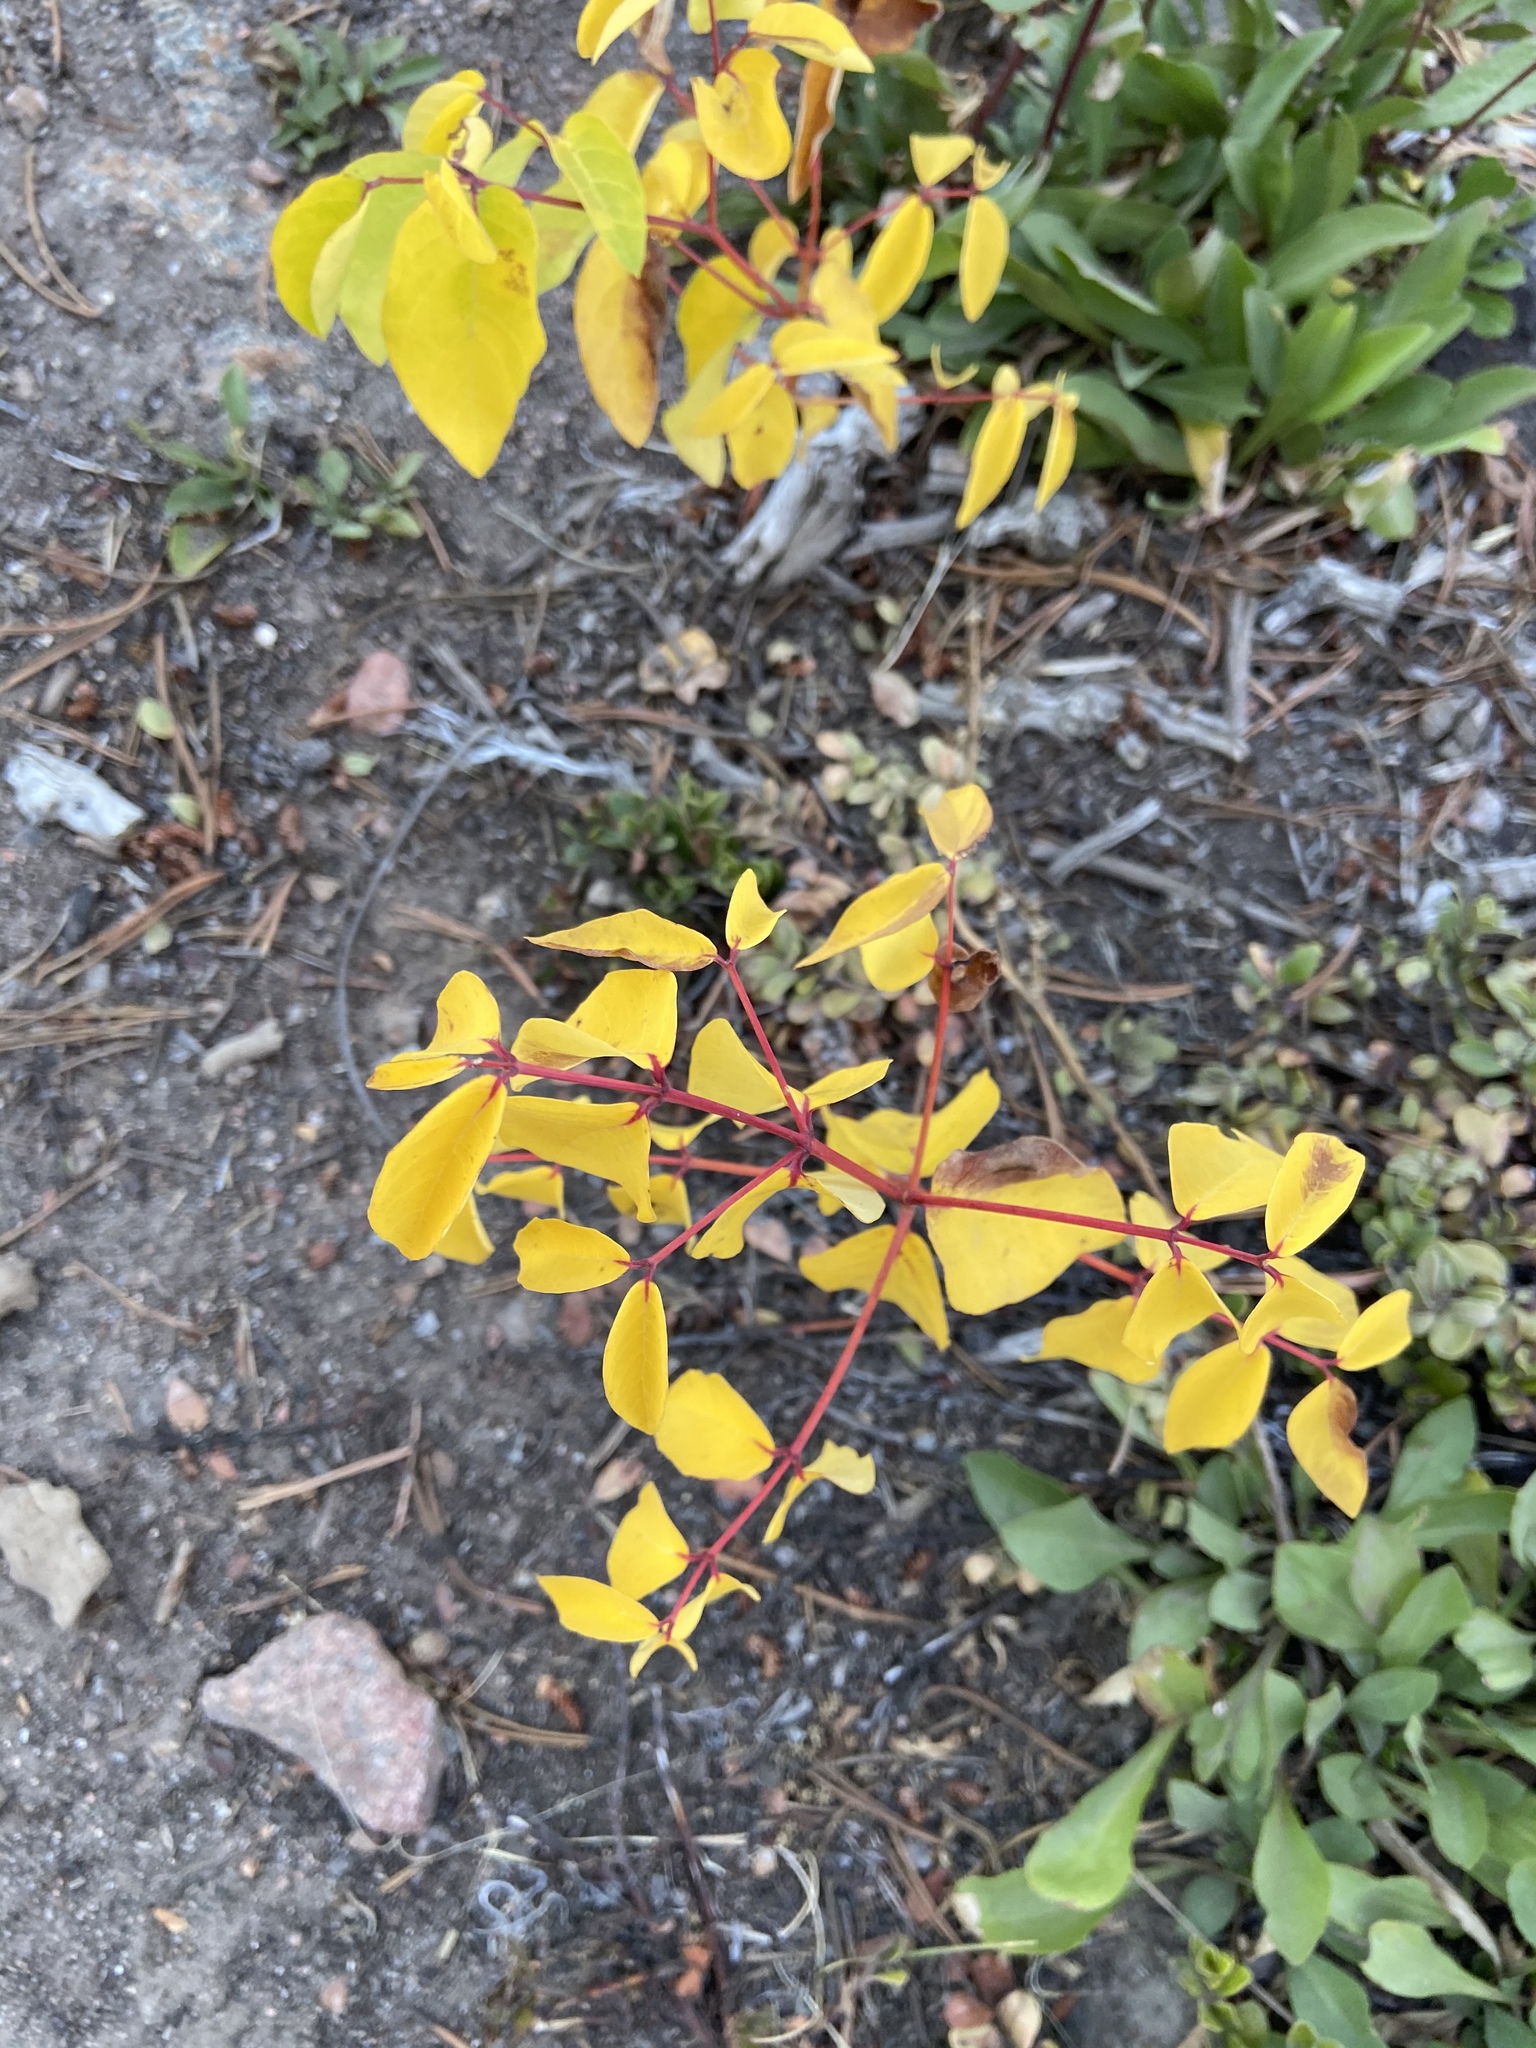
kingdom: Plantae
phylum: Tracheophyta
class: Magnoliopsida
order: Gentianales
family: Apocynaceae
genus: Apocynum
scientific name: Apocynum androsaemifolium
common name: Spreading dogbane
